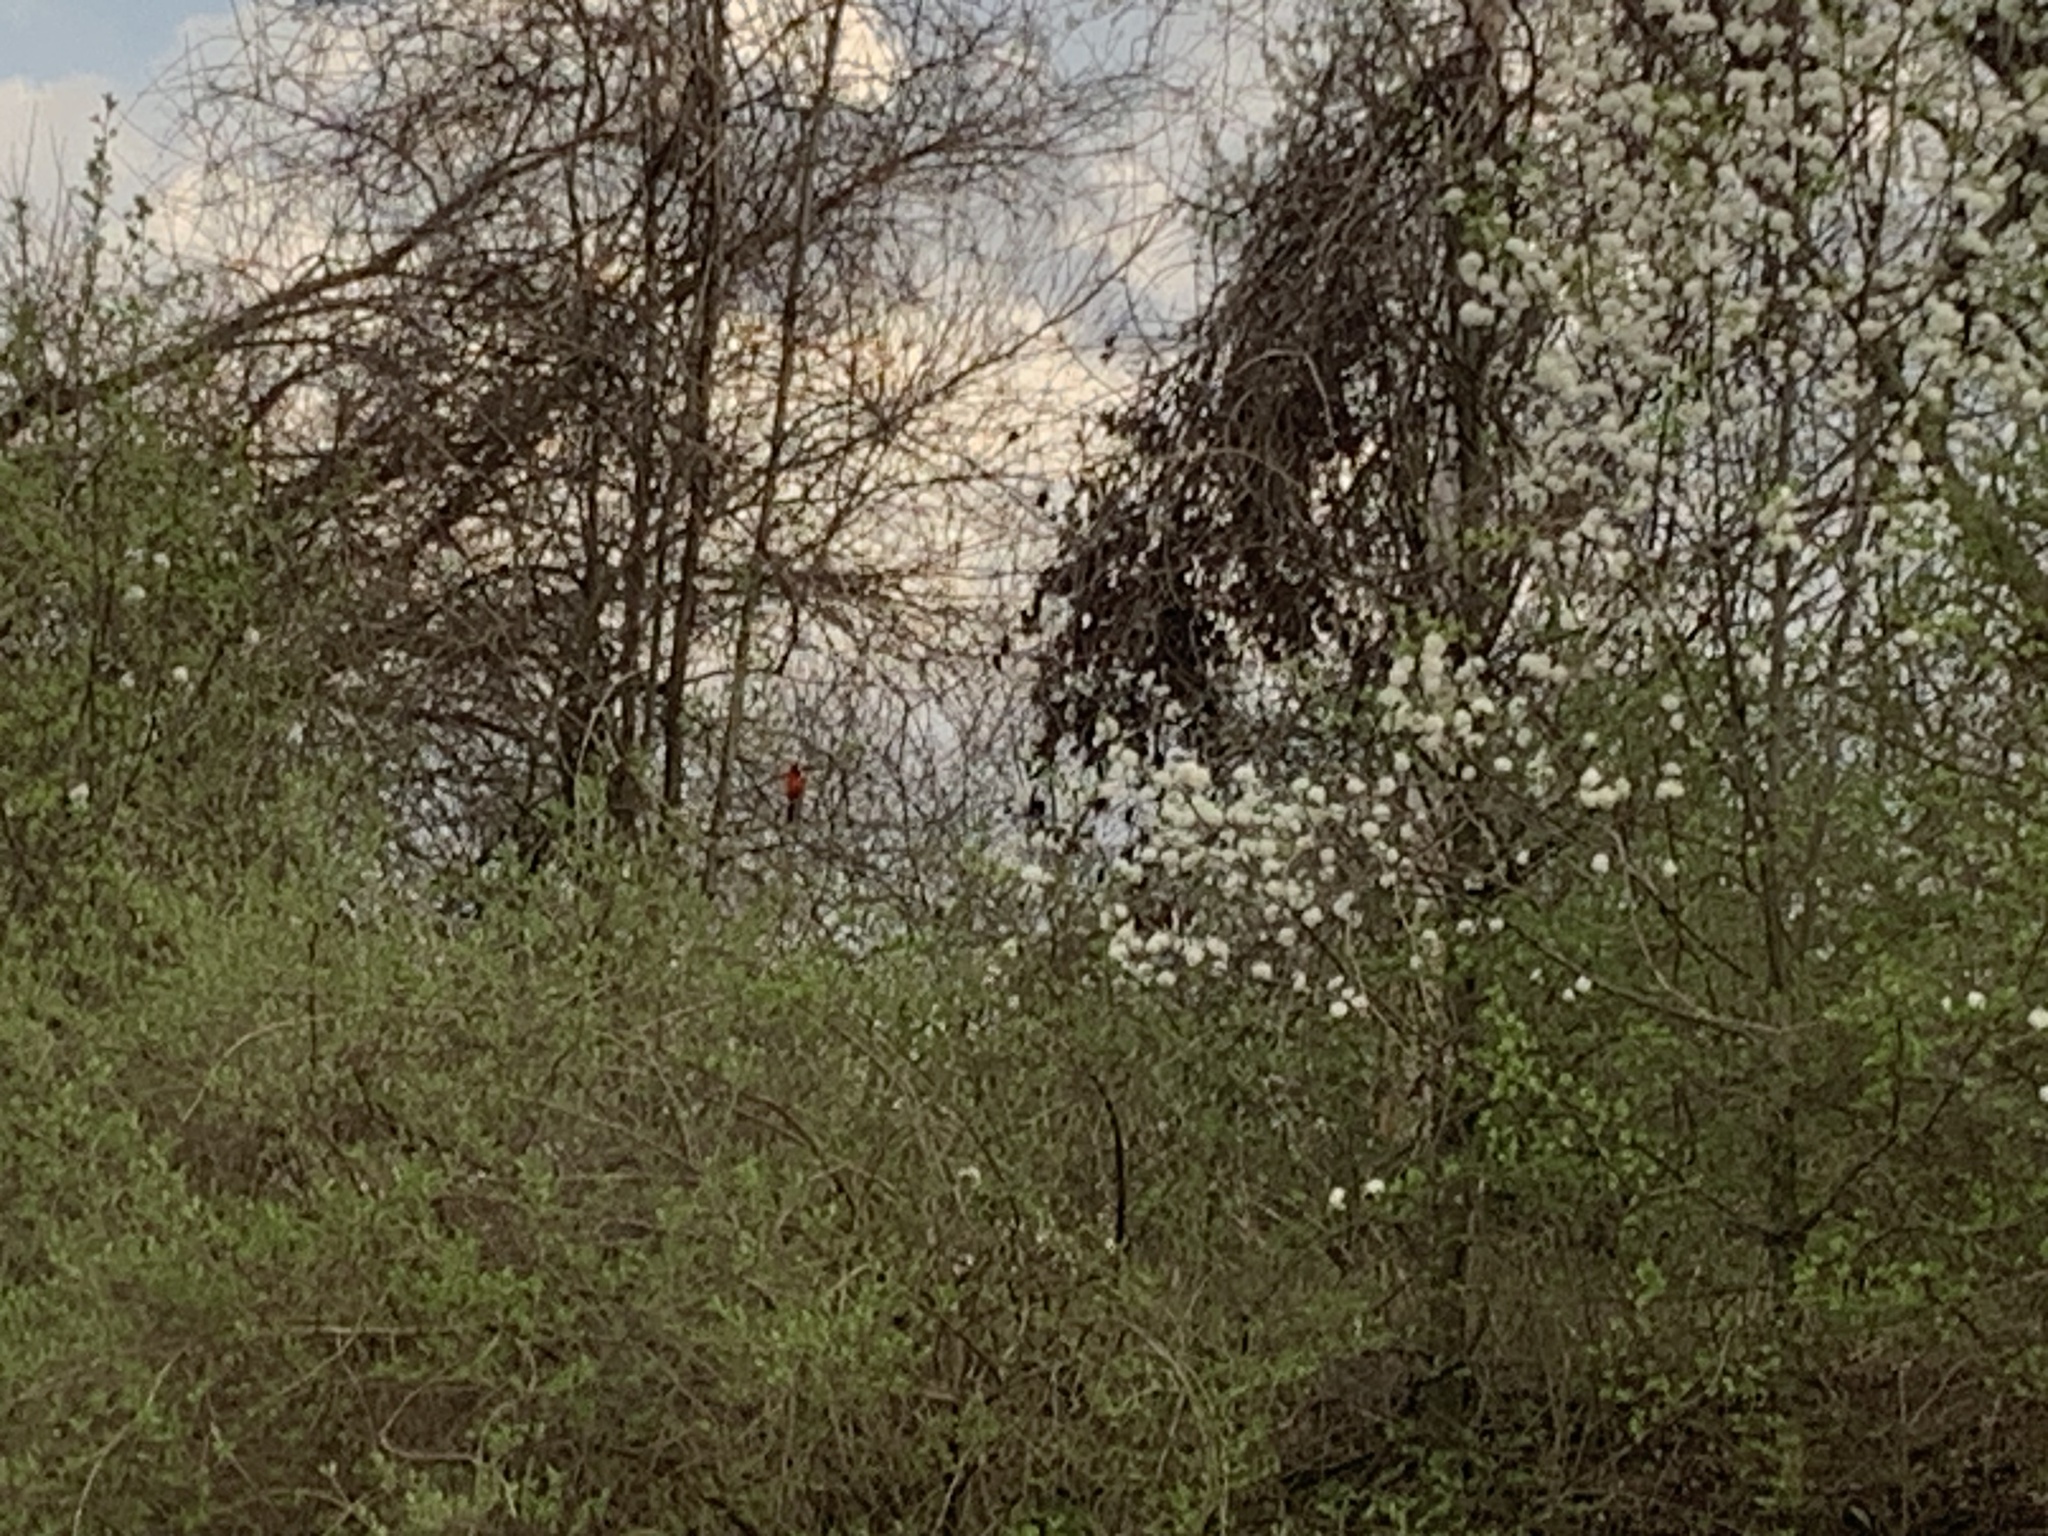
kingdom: Animalia
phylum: Chordata
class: Aves
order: Passeriformes
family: Cardinalidae
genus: Cardinalis
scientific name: Cardinalis cardinalis
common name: Northern cardinal
